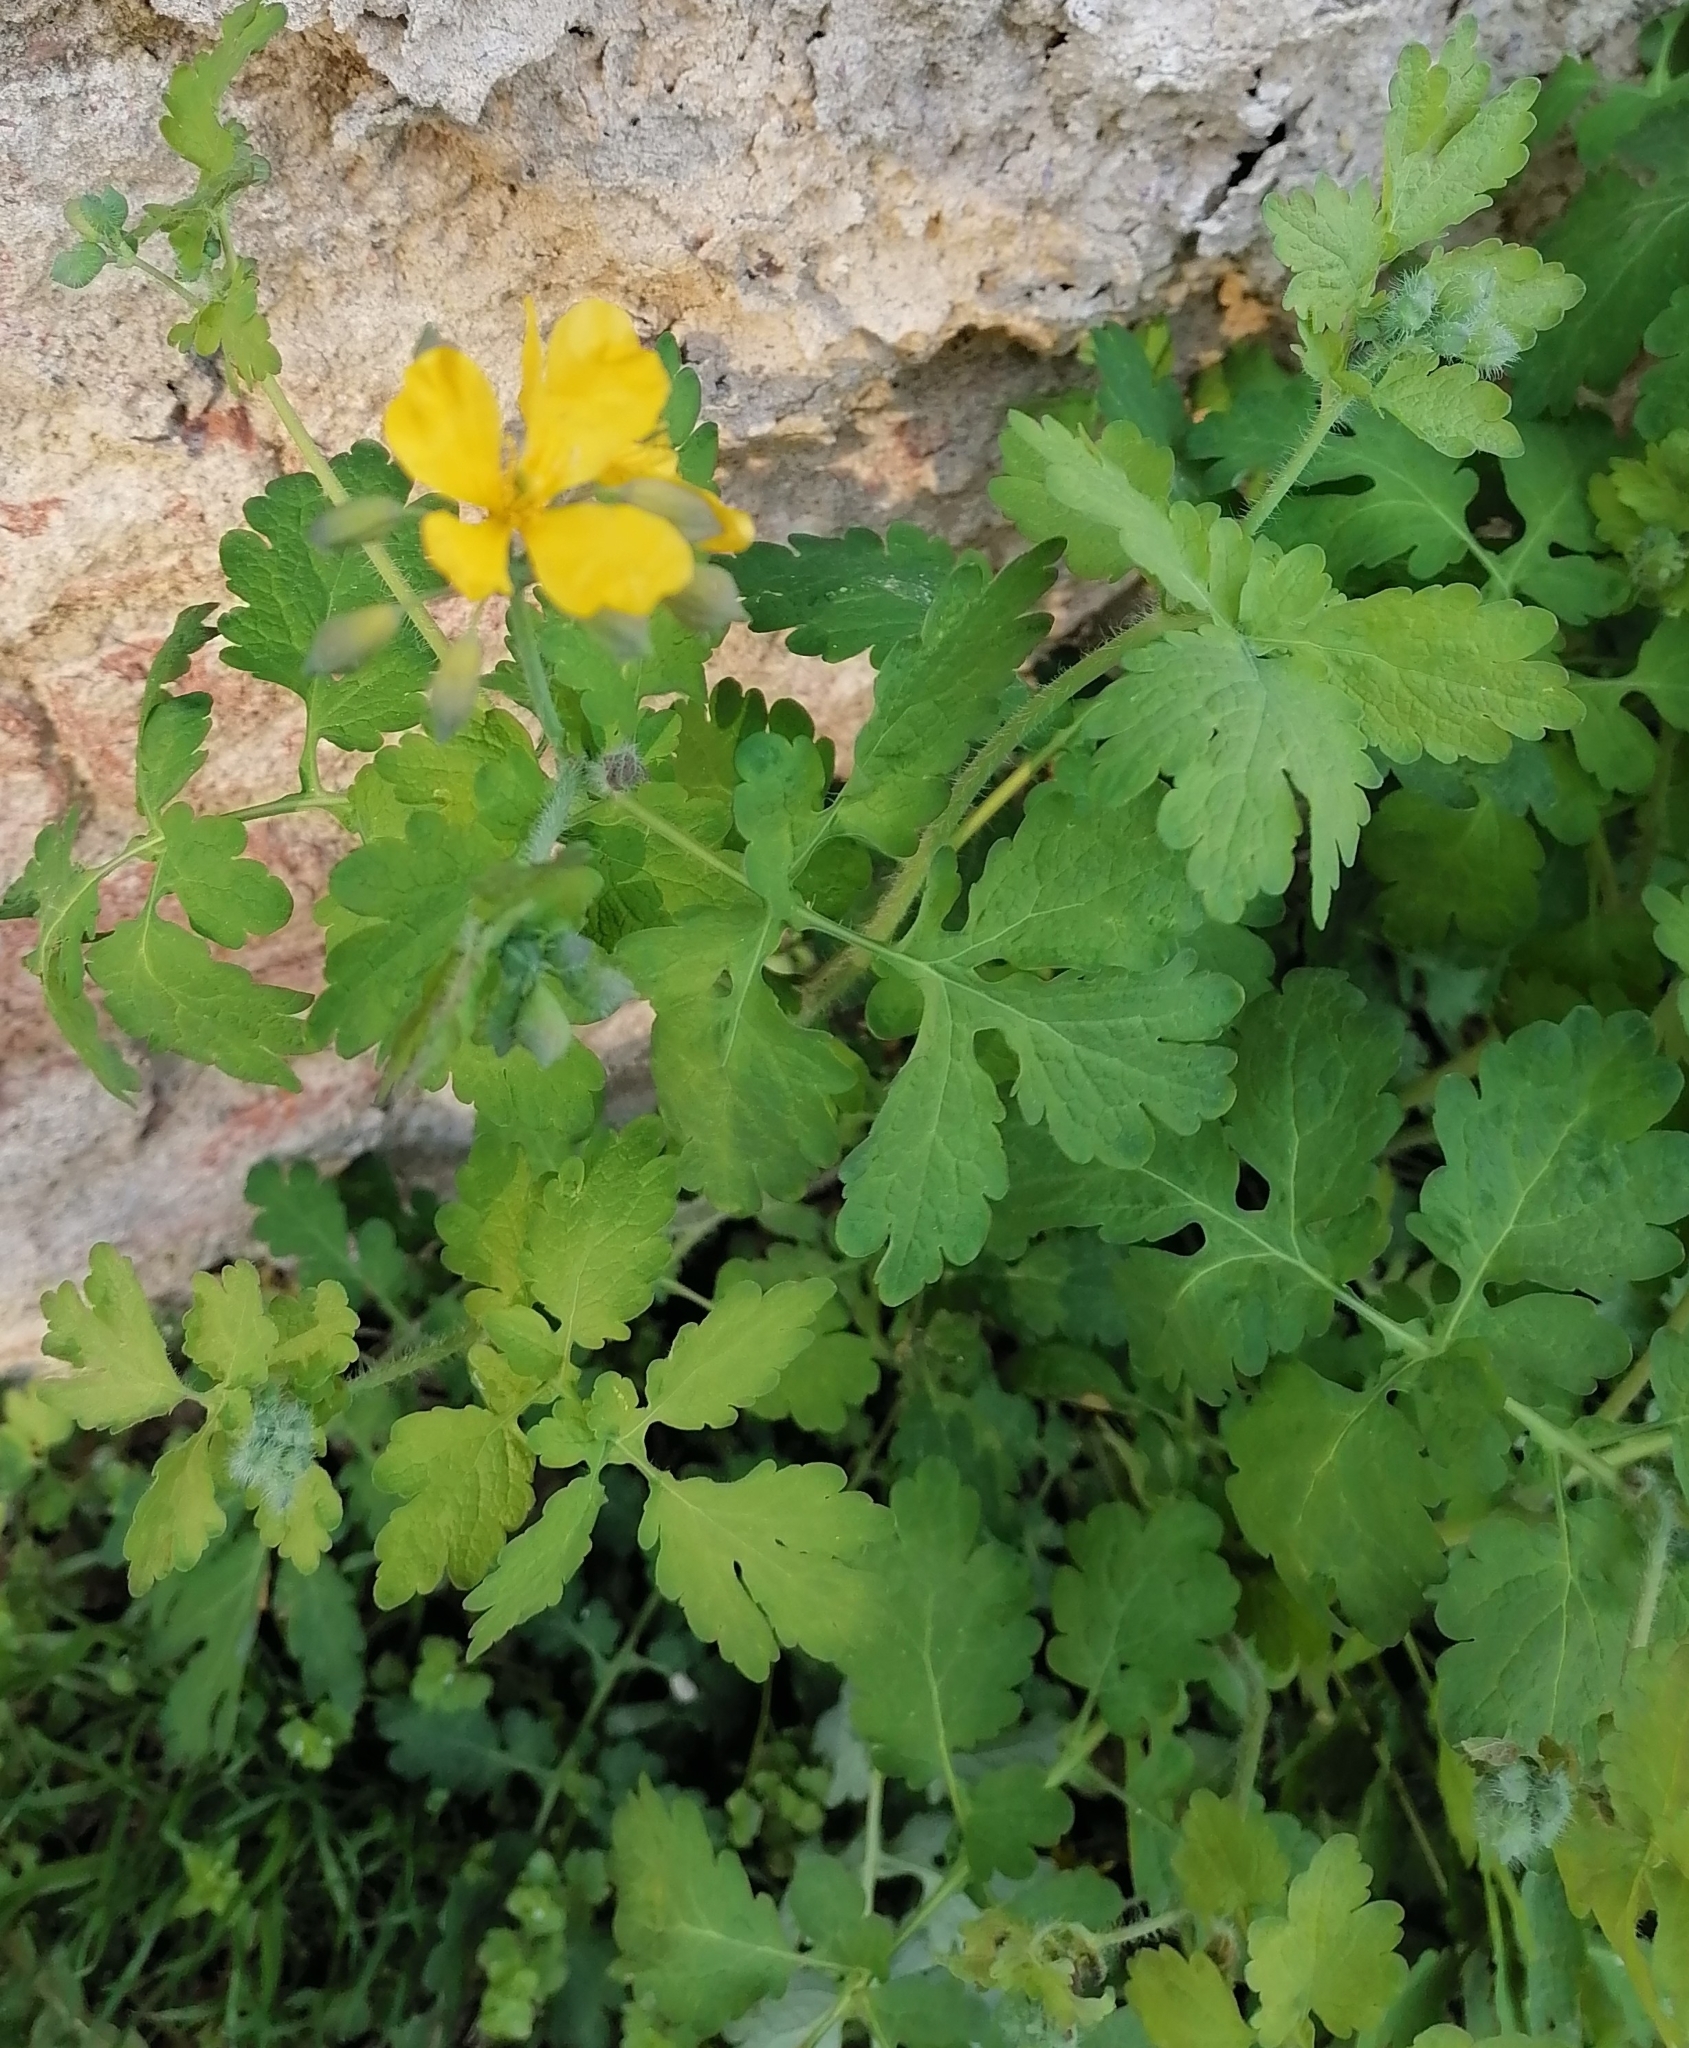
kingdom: Plantae
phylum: Tracheophyta
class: Magnoliopsida
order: Ranunculales
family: Papaveraceae
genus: Chelidonium
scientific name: Chelidonium majus
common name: Greater celandine
